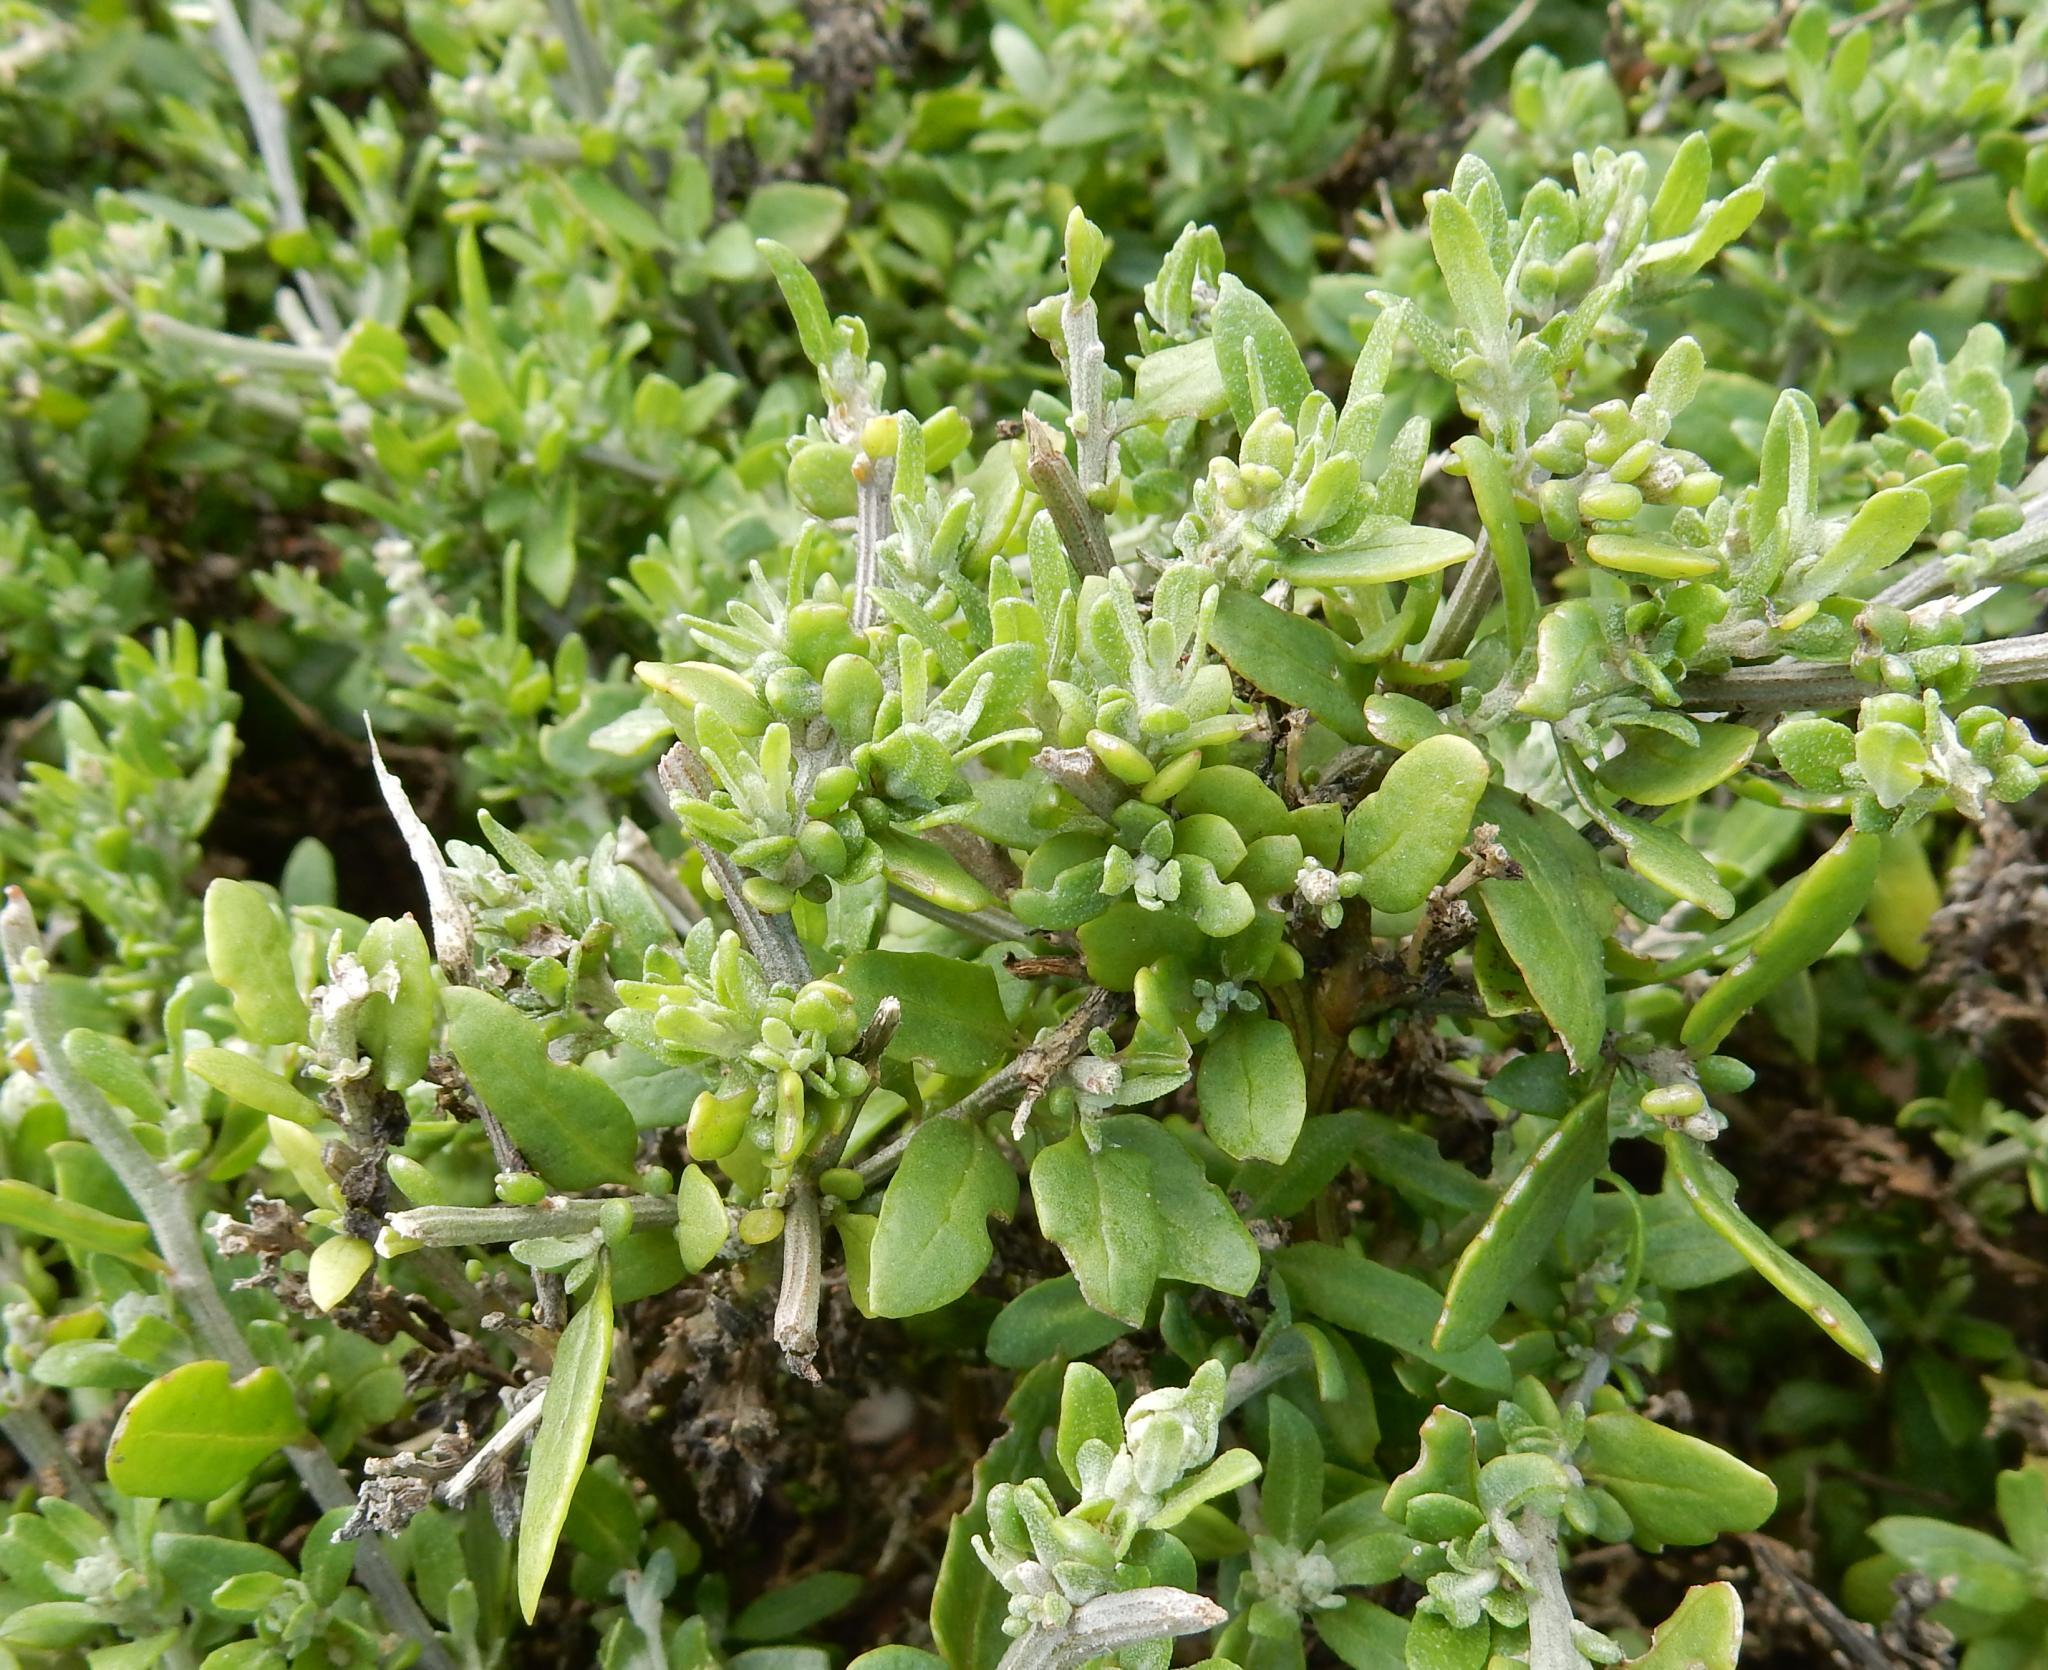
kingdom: Plantae
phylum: Tracheophyta
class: Magnoliopsida
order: Caryophyllales
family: Amaranthaceae
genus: Exomis
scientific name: Exomis microphylla
